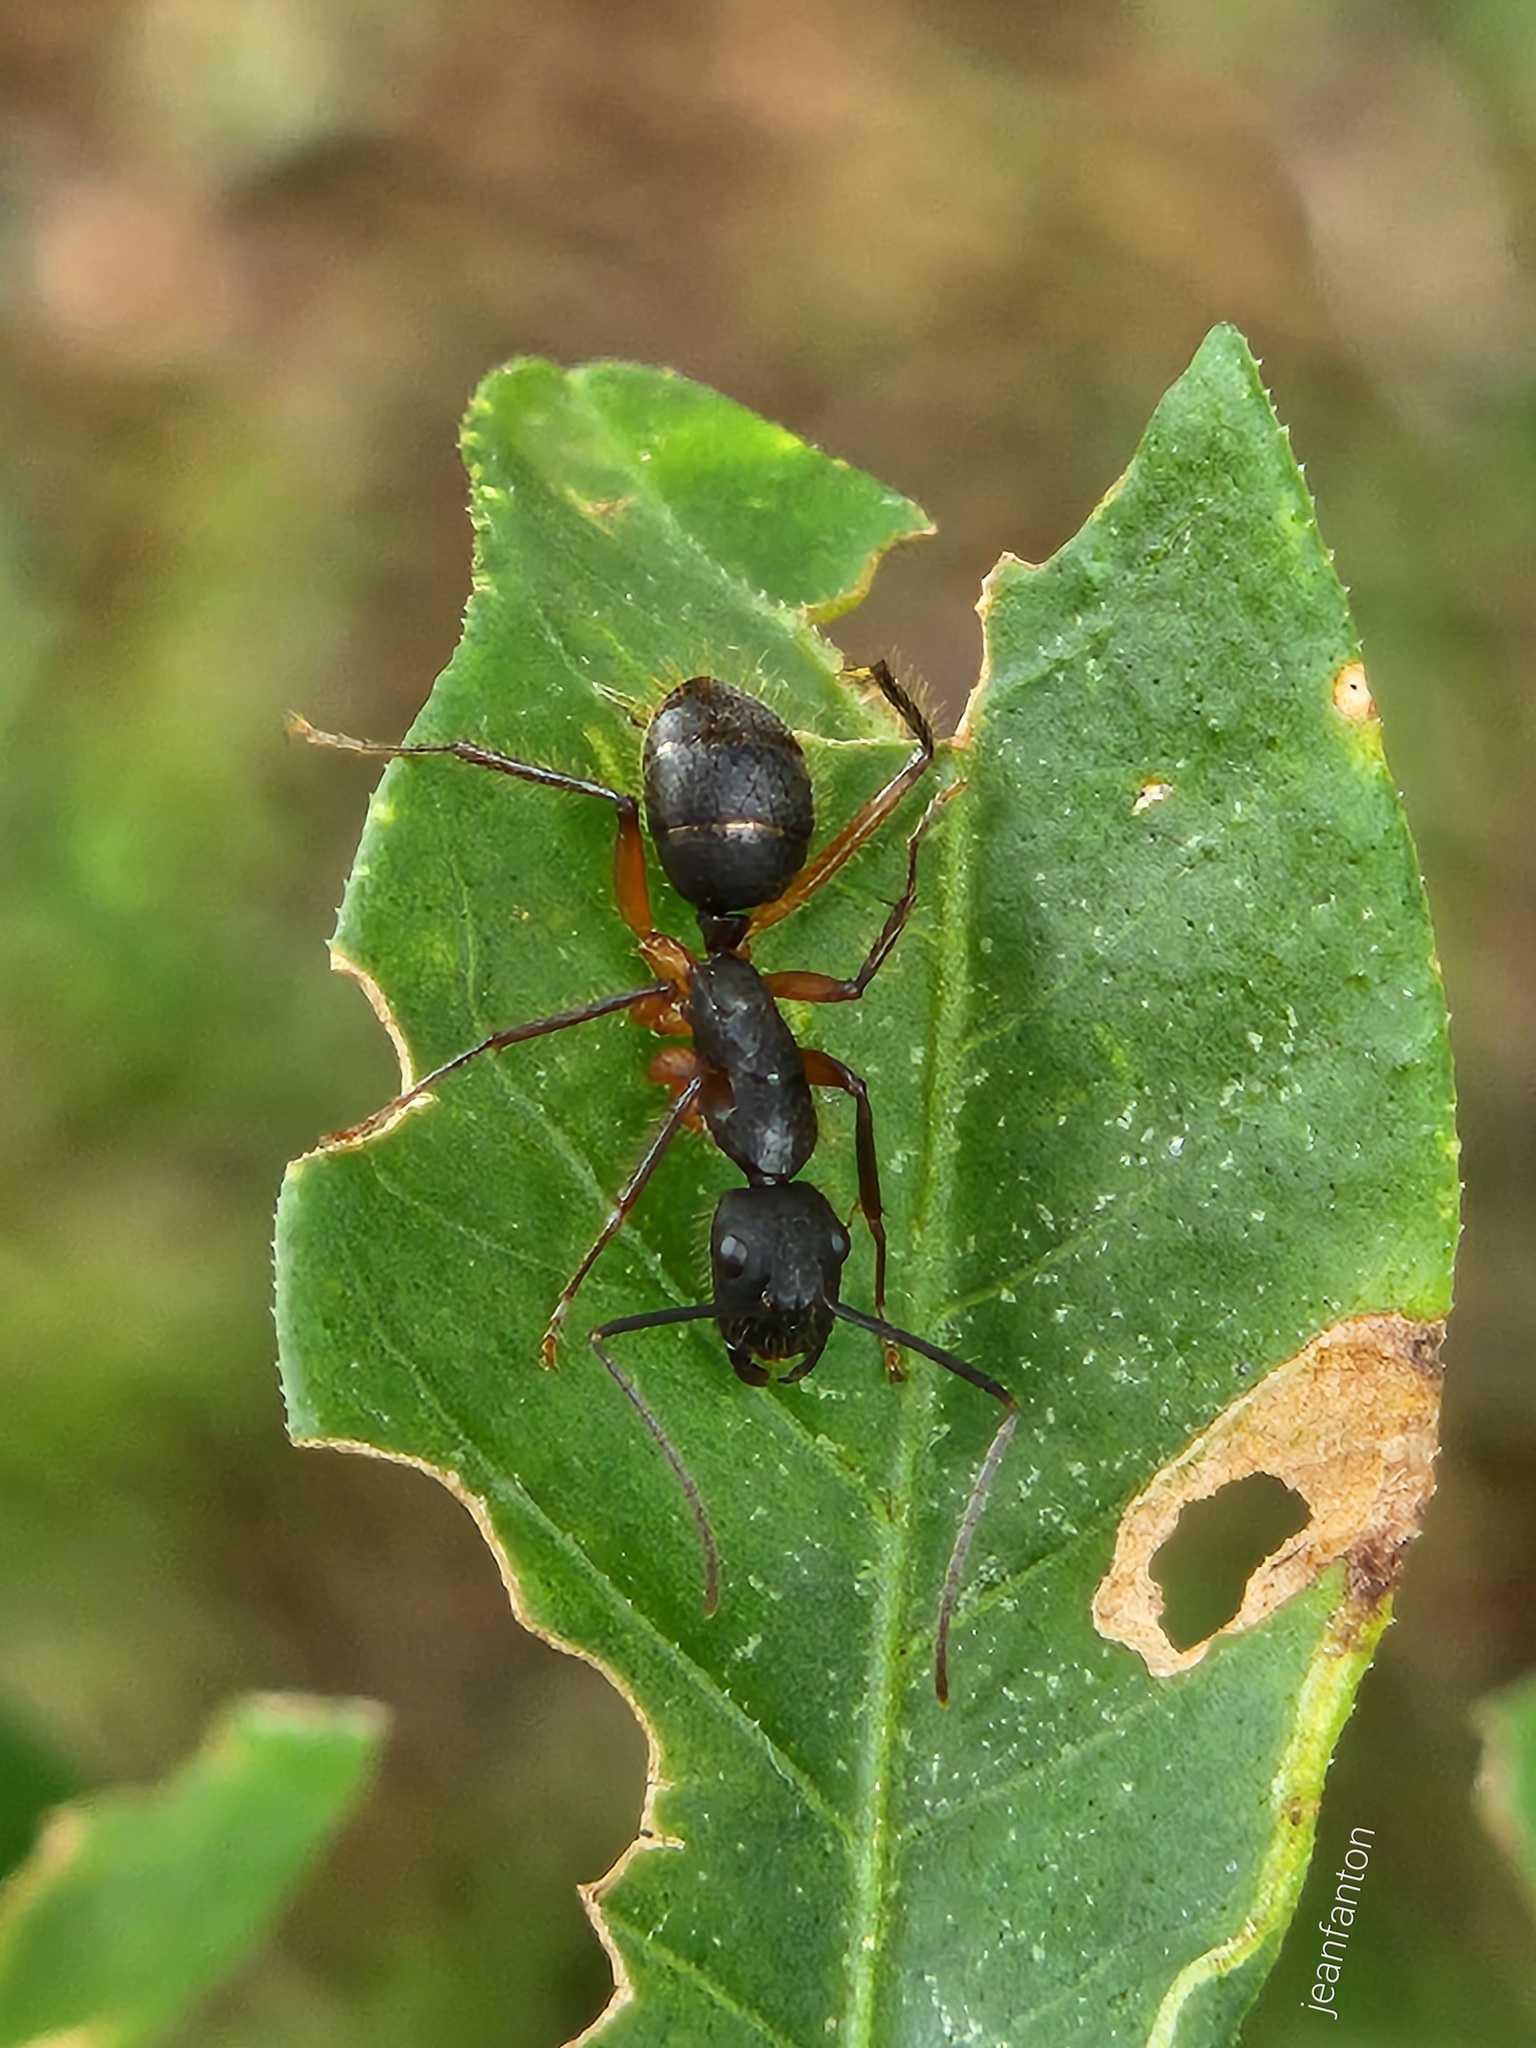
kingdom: Animalia
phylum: Arthropoda
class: Insecta
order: Hymenoptera
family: Formicidae
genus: Camponotus
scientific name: Camponotus renggeri
